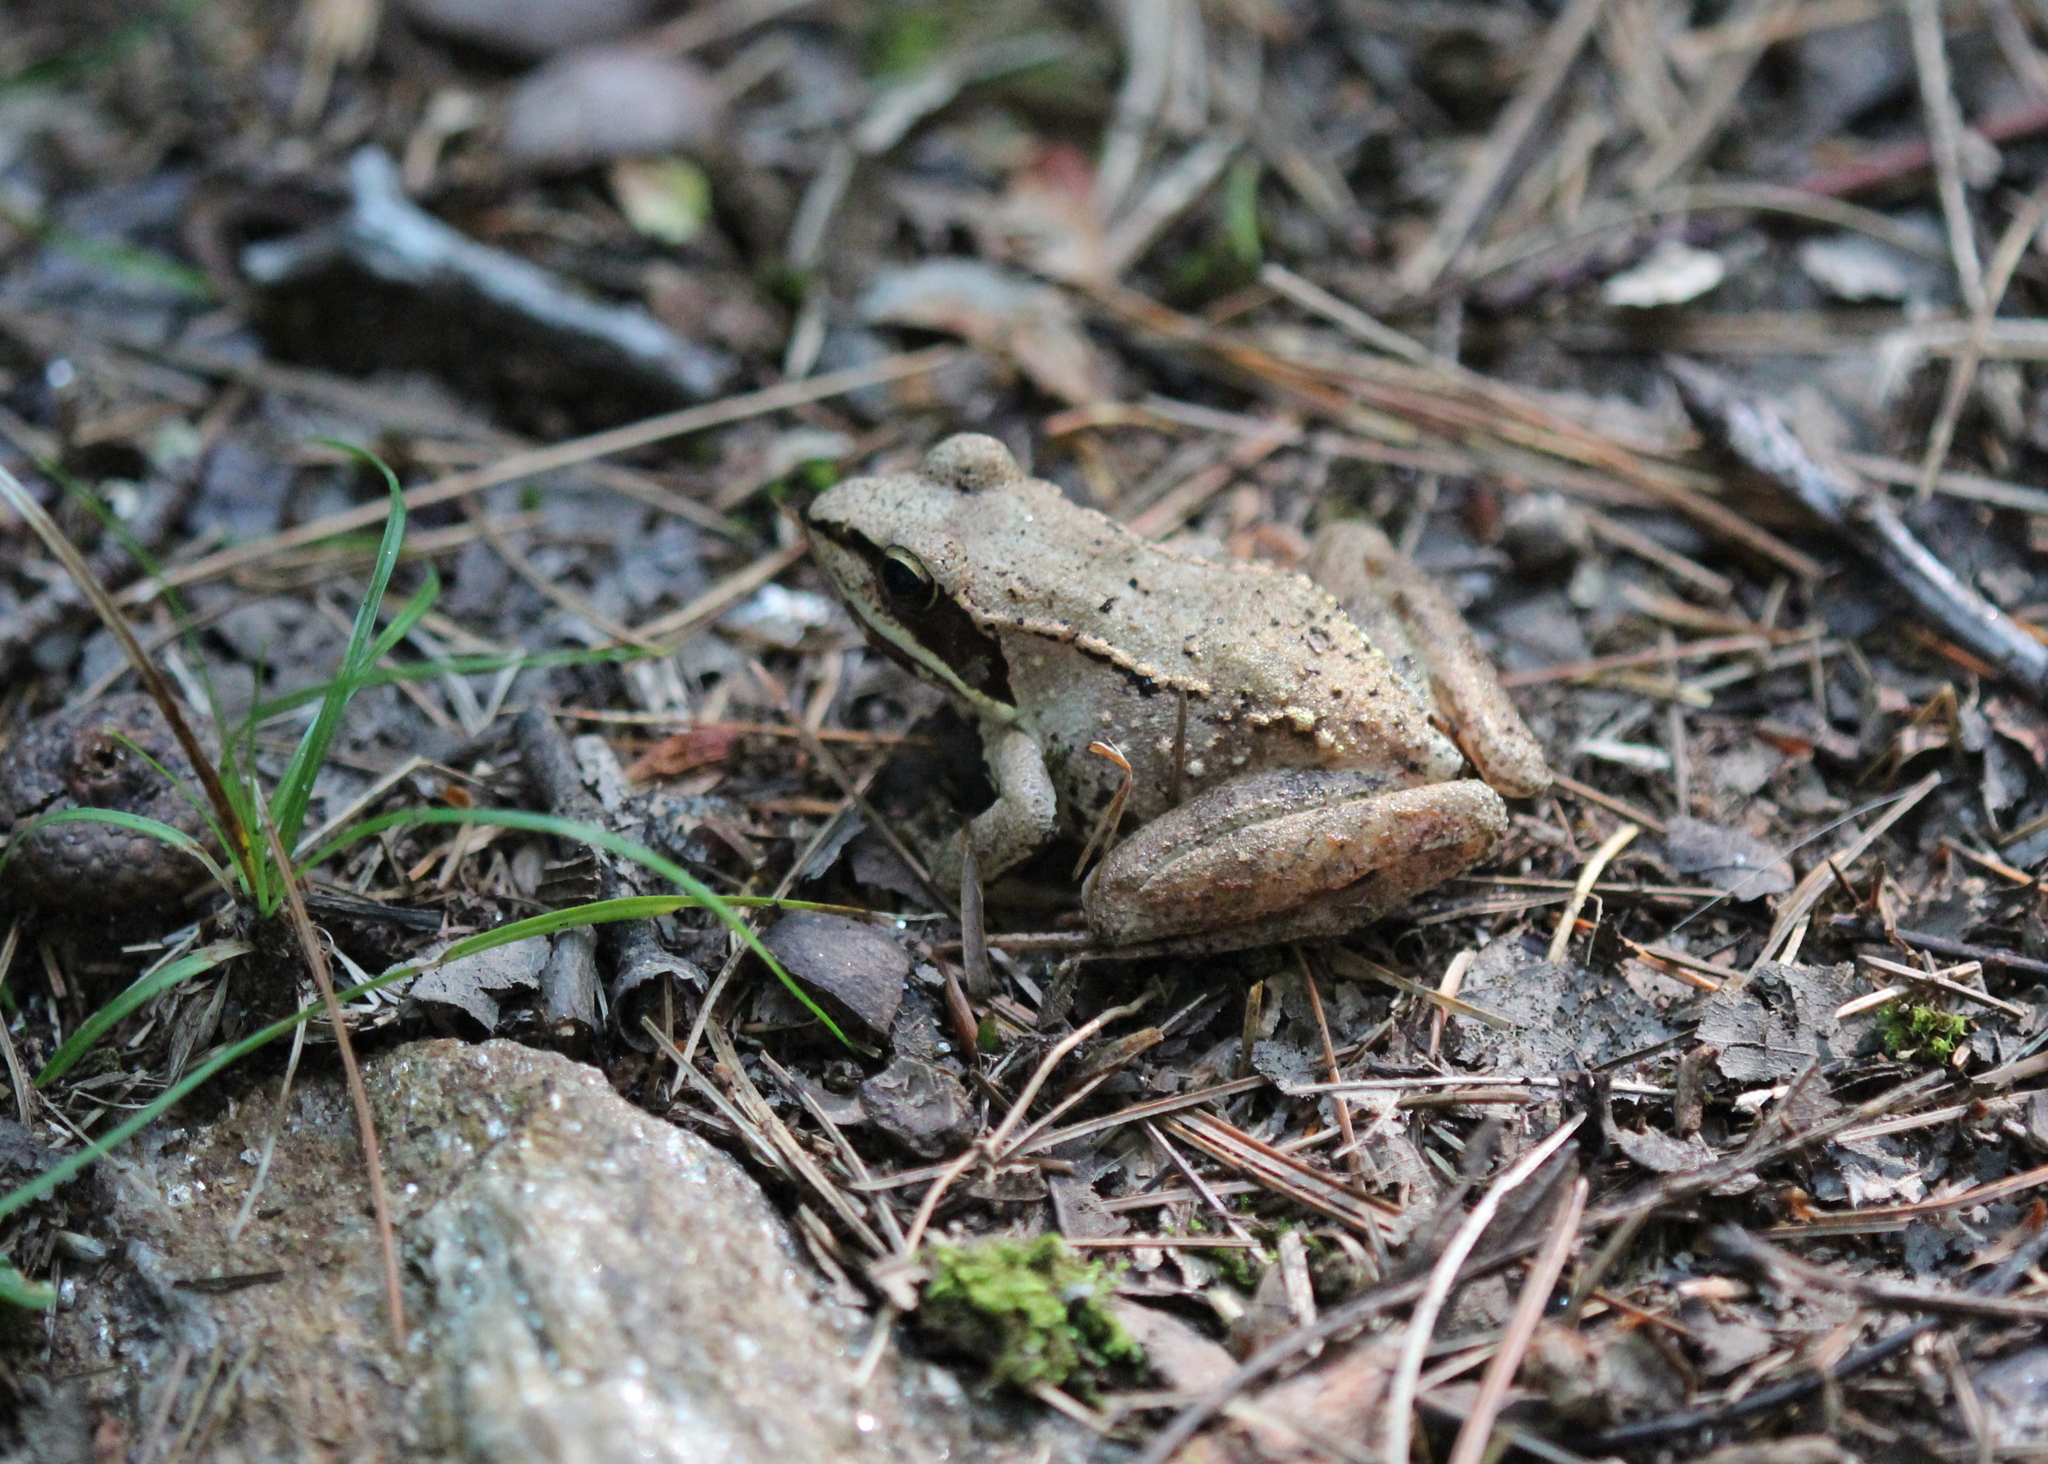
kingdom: Animalia
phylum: Chordata
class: Amphibia
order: Anura
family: Ranidae
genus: Lithobates
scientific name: Lithobates sylvaticus
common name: Wood frog
